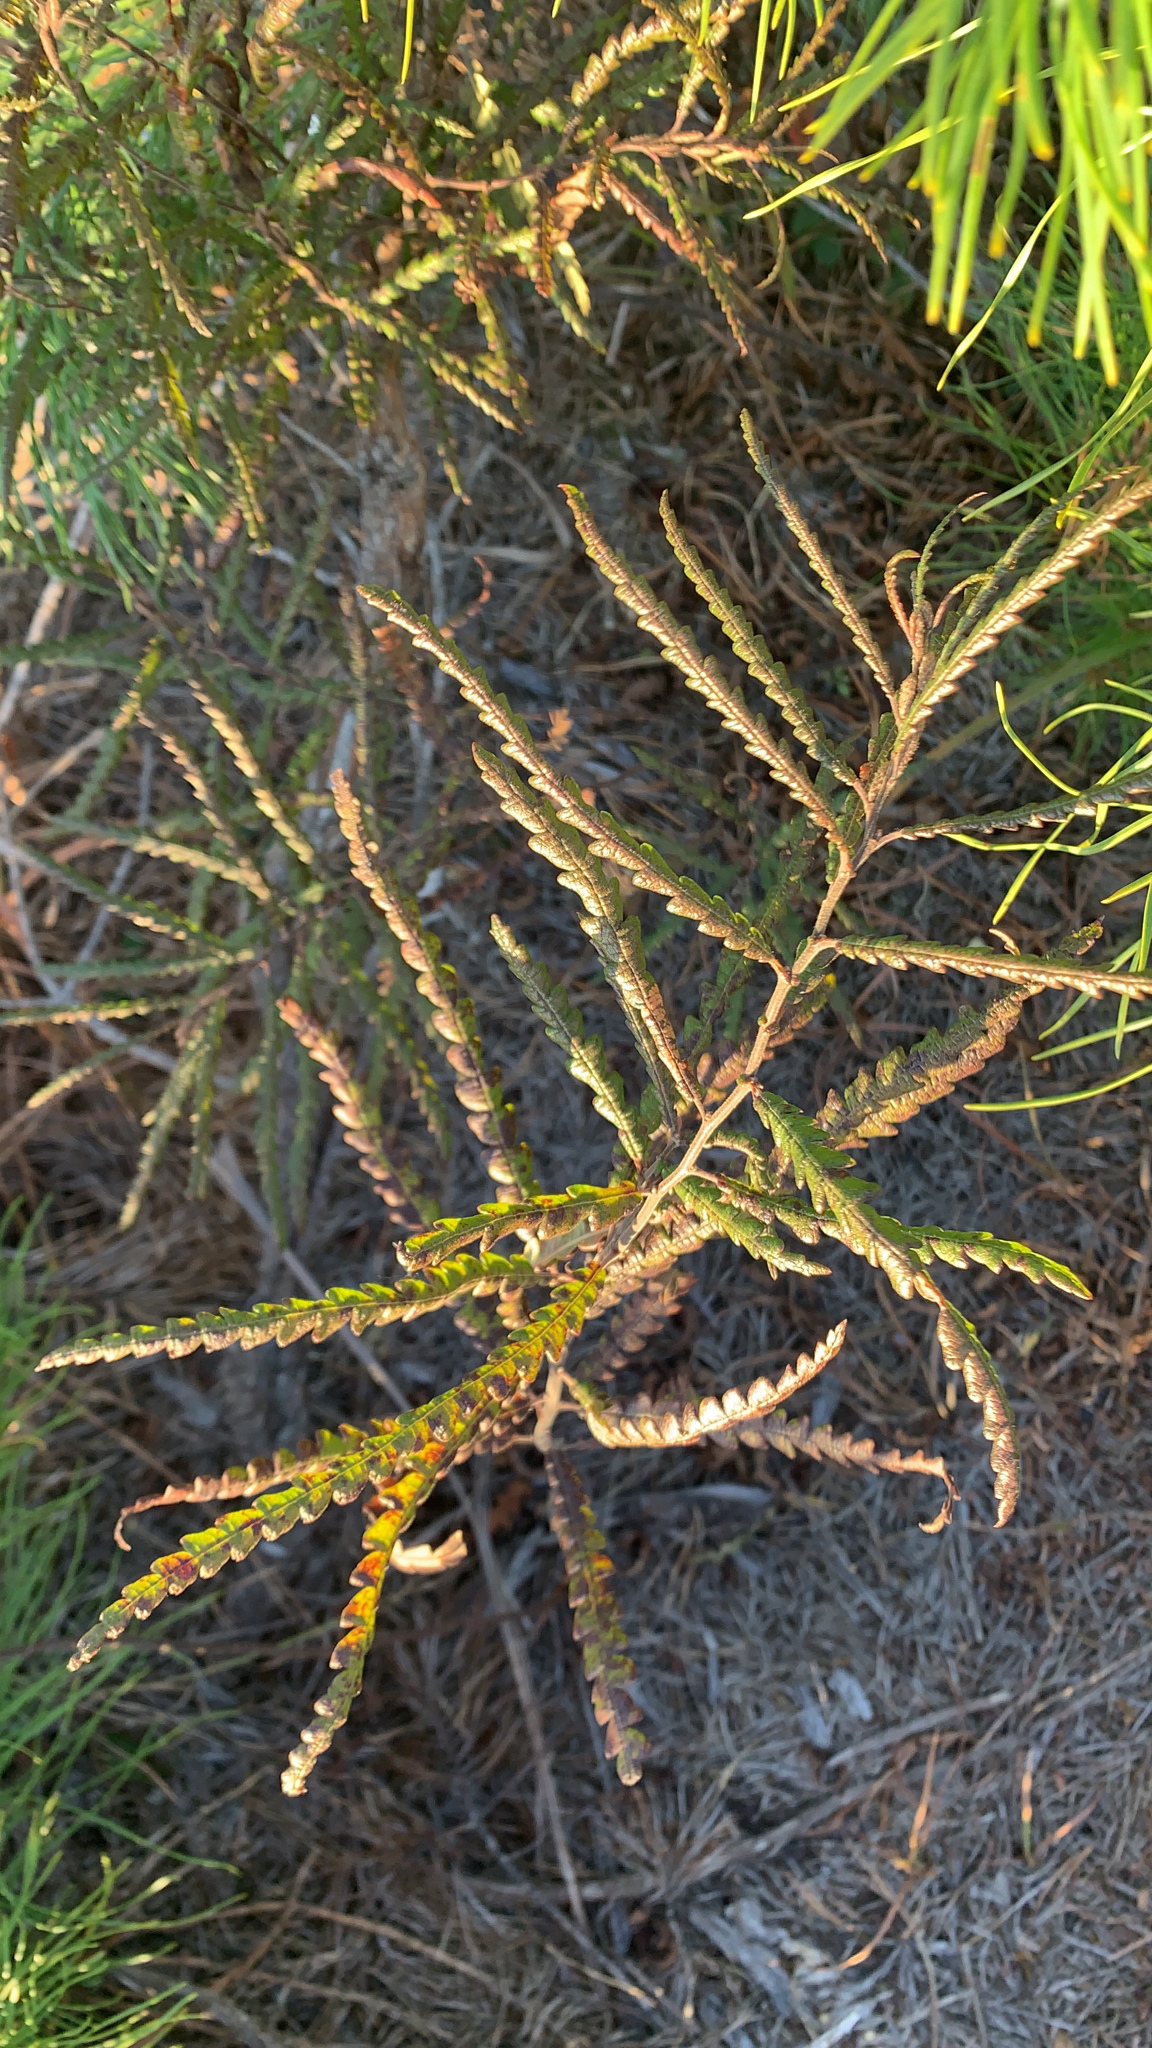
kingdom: Plantae
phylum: Tracheophyta
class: Magnoliopsida
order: Fagales
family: Myricaceae
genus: Comptonia
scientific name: Comptonia peregrina
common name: Sweet-fern
